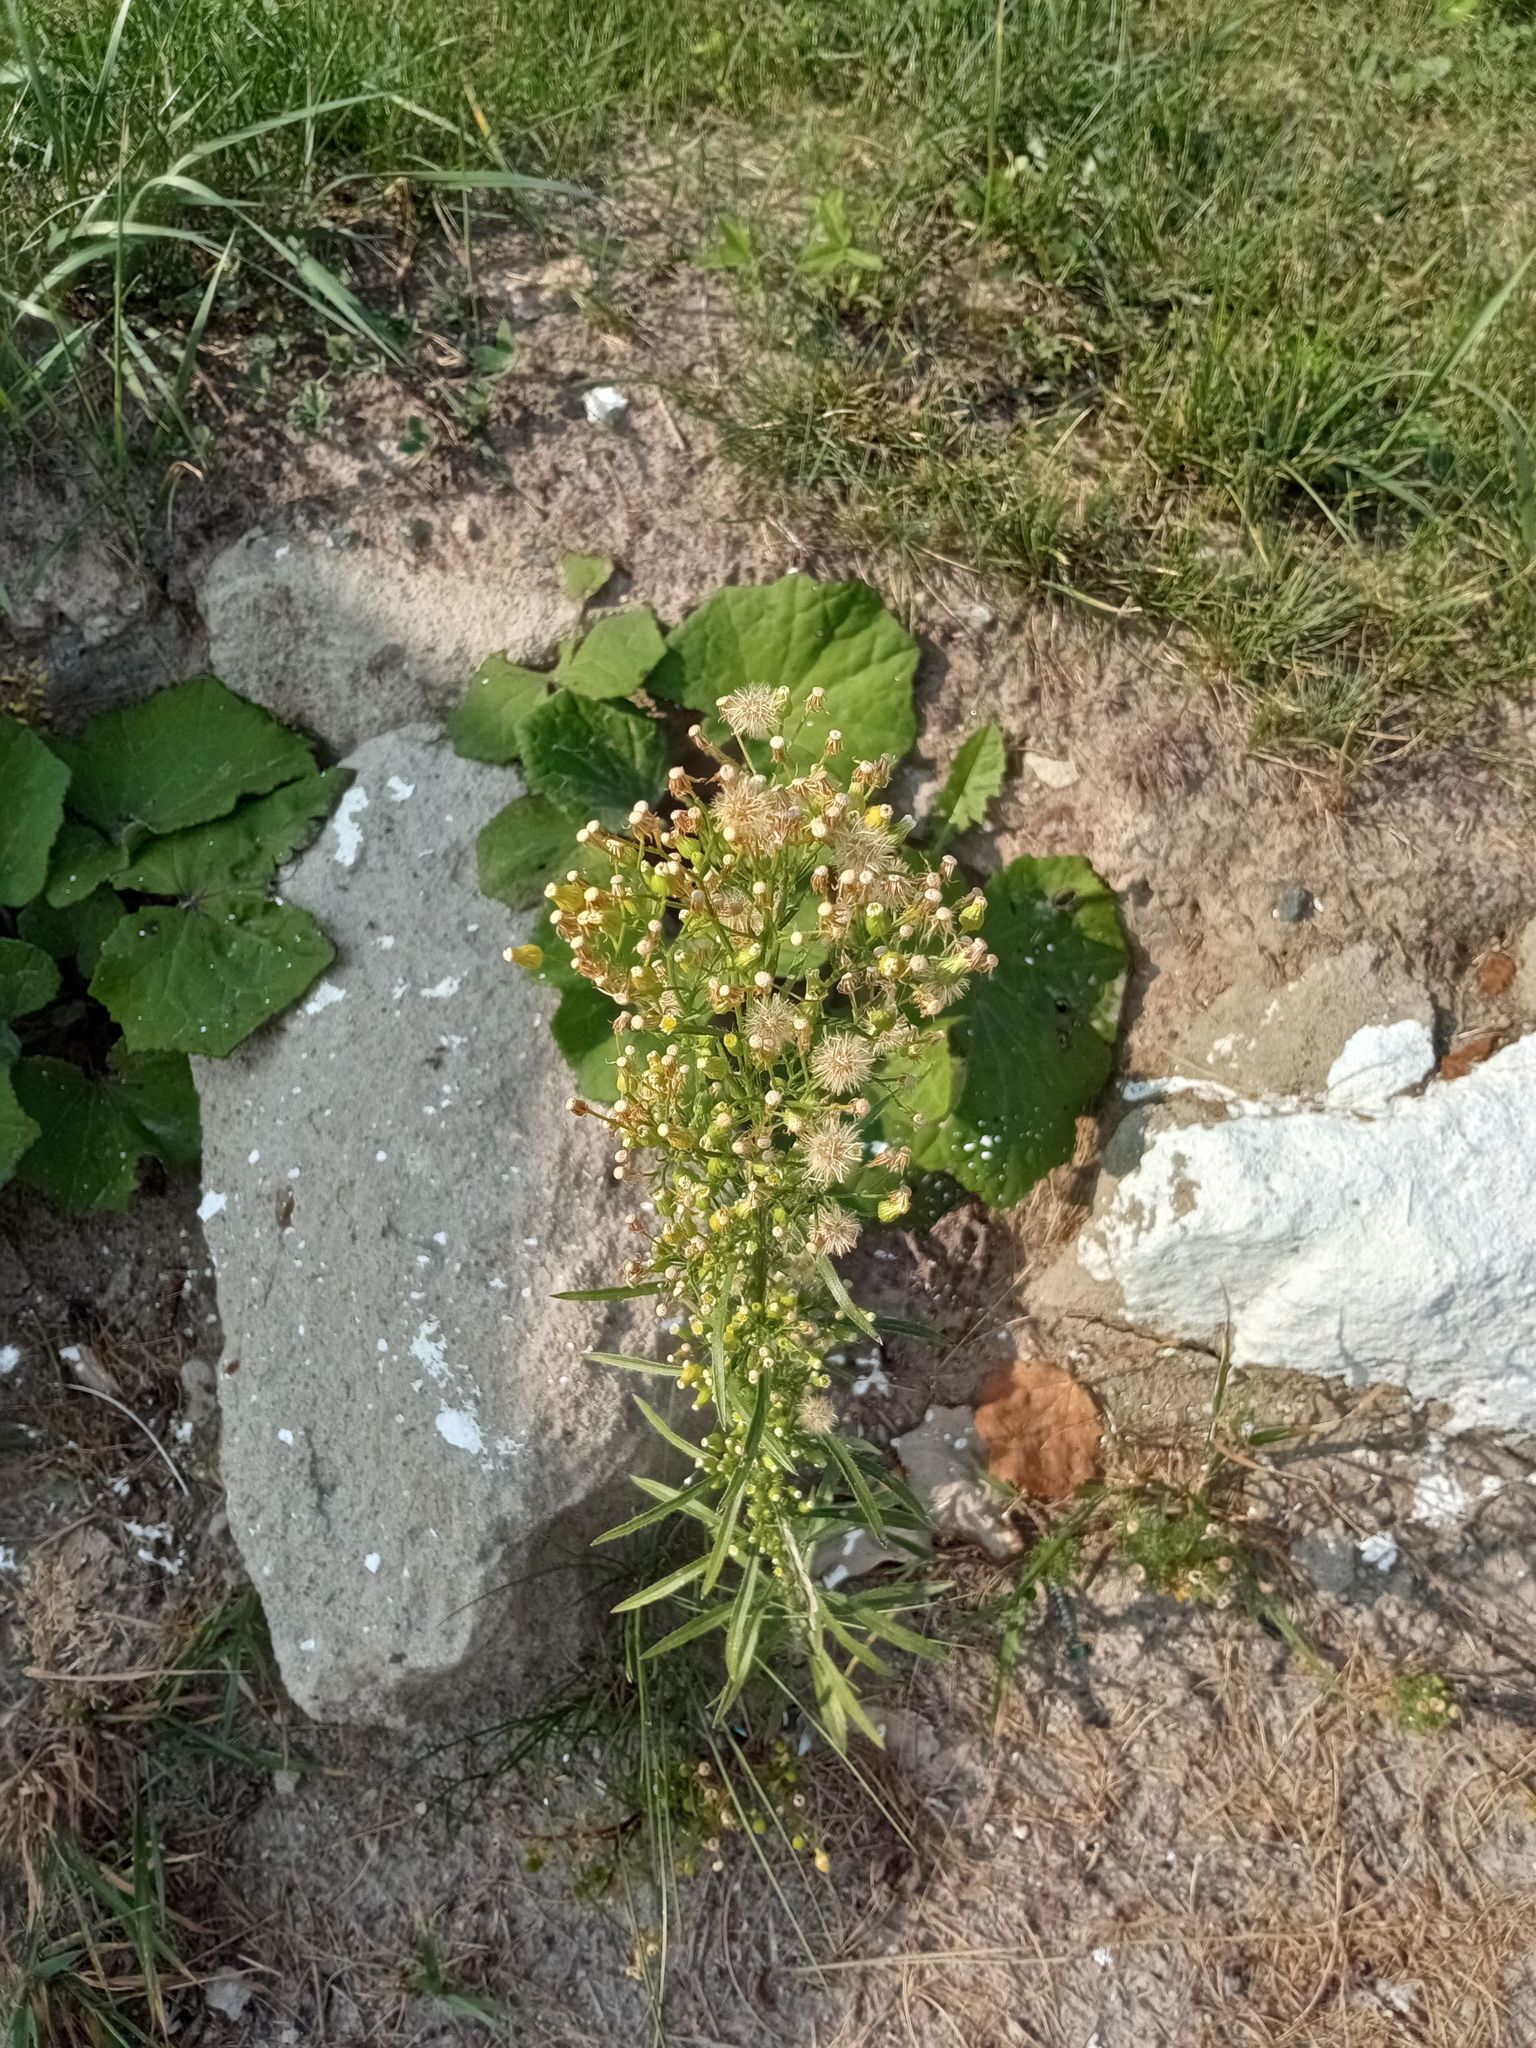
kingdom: Plantae
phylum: Tracheophyta
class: Magnoliopsida
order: Asterales
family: Asteraceae
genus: Erigeron
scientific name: Erigeron canadensis
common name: Canadian fleabane
